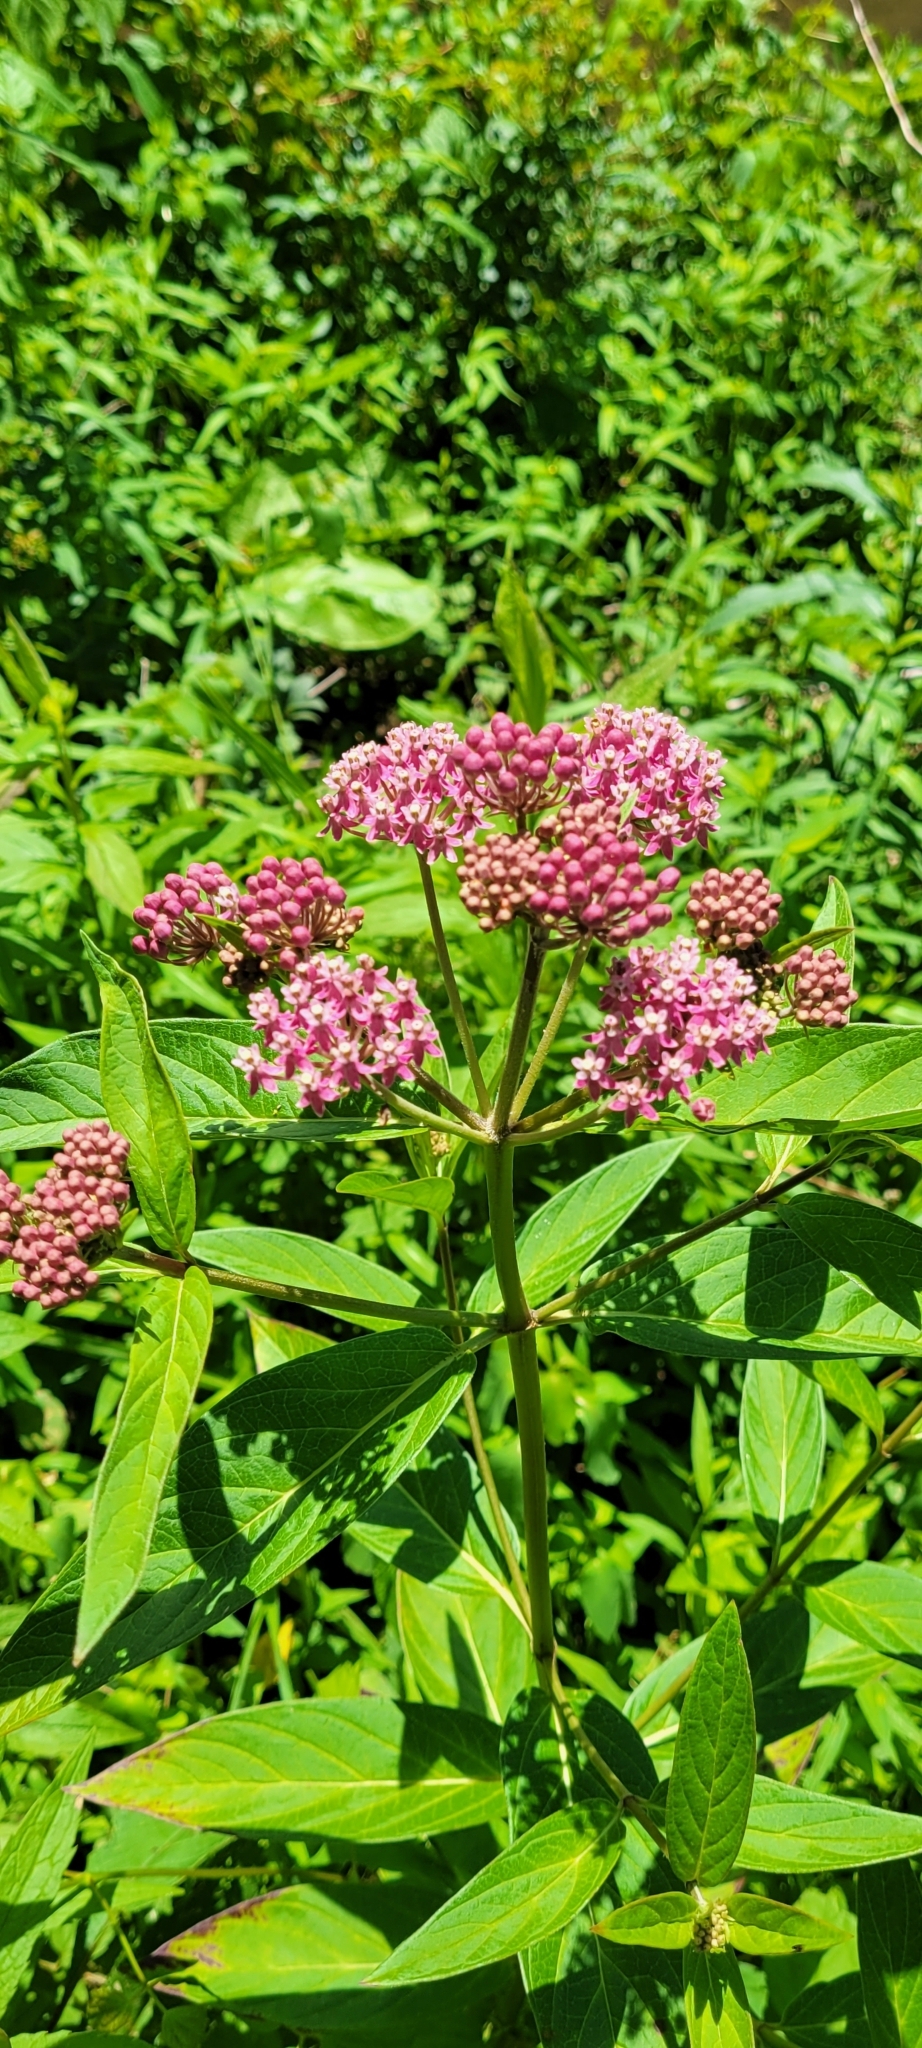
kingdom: Plantae
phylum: Tracheophyta
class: Magnoliopsida
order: Gentianales
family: Apocynaceae
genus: Asclepias
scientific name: Asclepias incarnata
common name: Swamp milkweed
